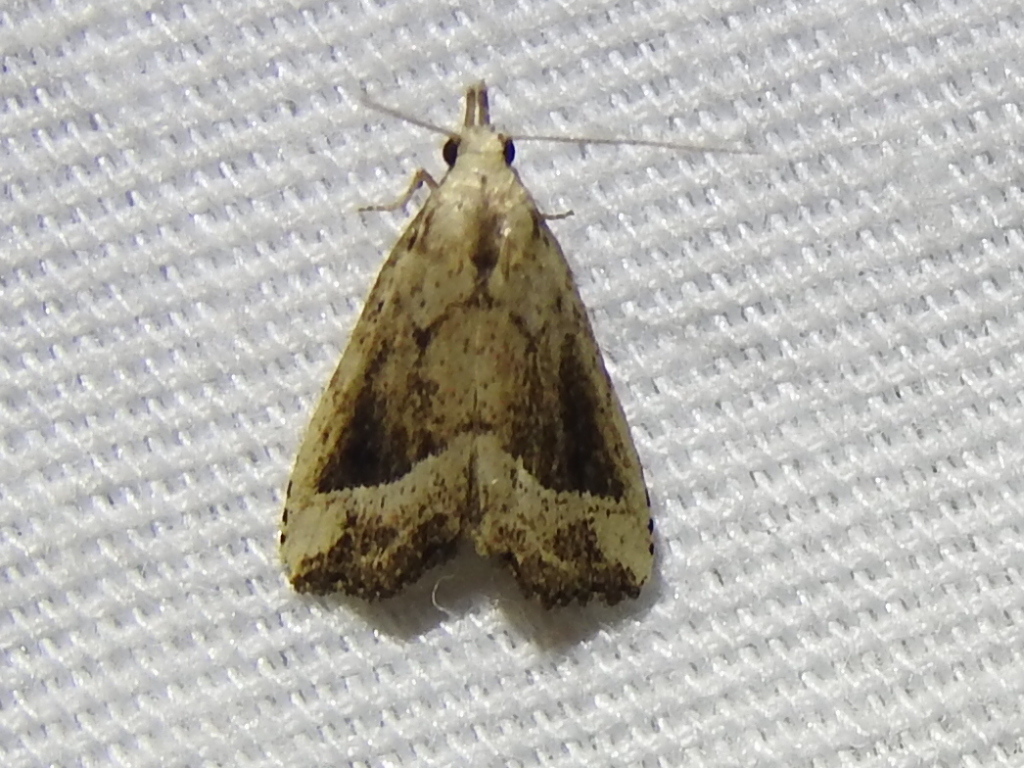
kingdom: Animalia
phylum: Arthropoda
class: Insecta
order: Lepidoptera
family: Erebidae
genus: Schrankia
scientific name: Schrankia
